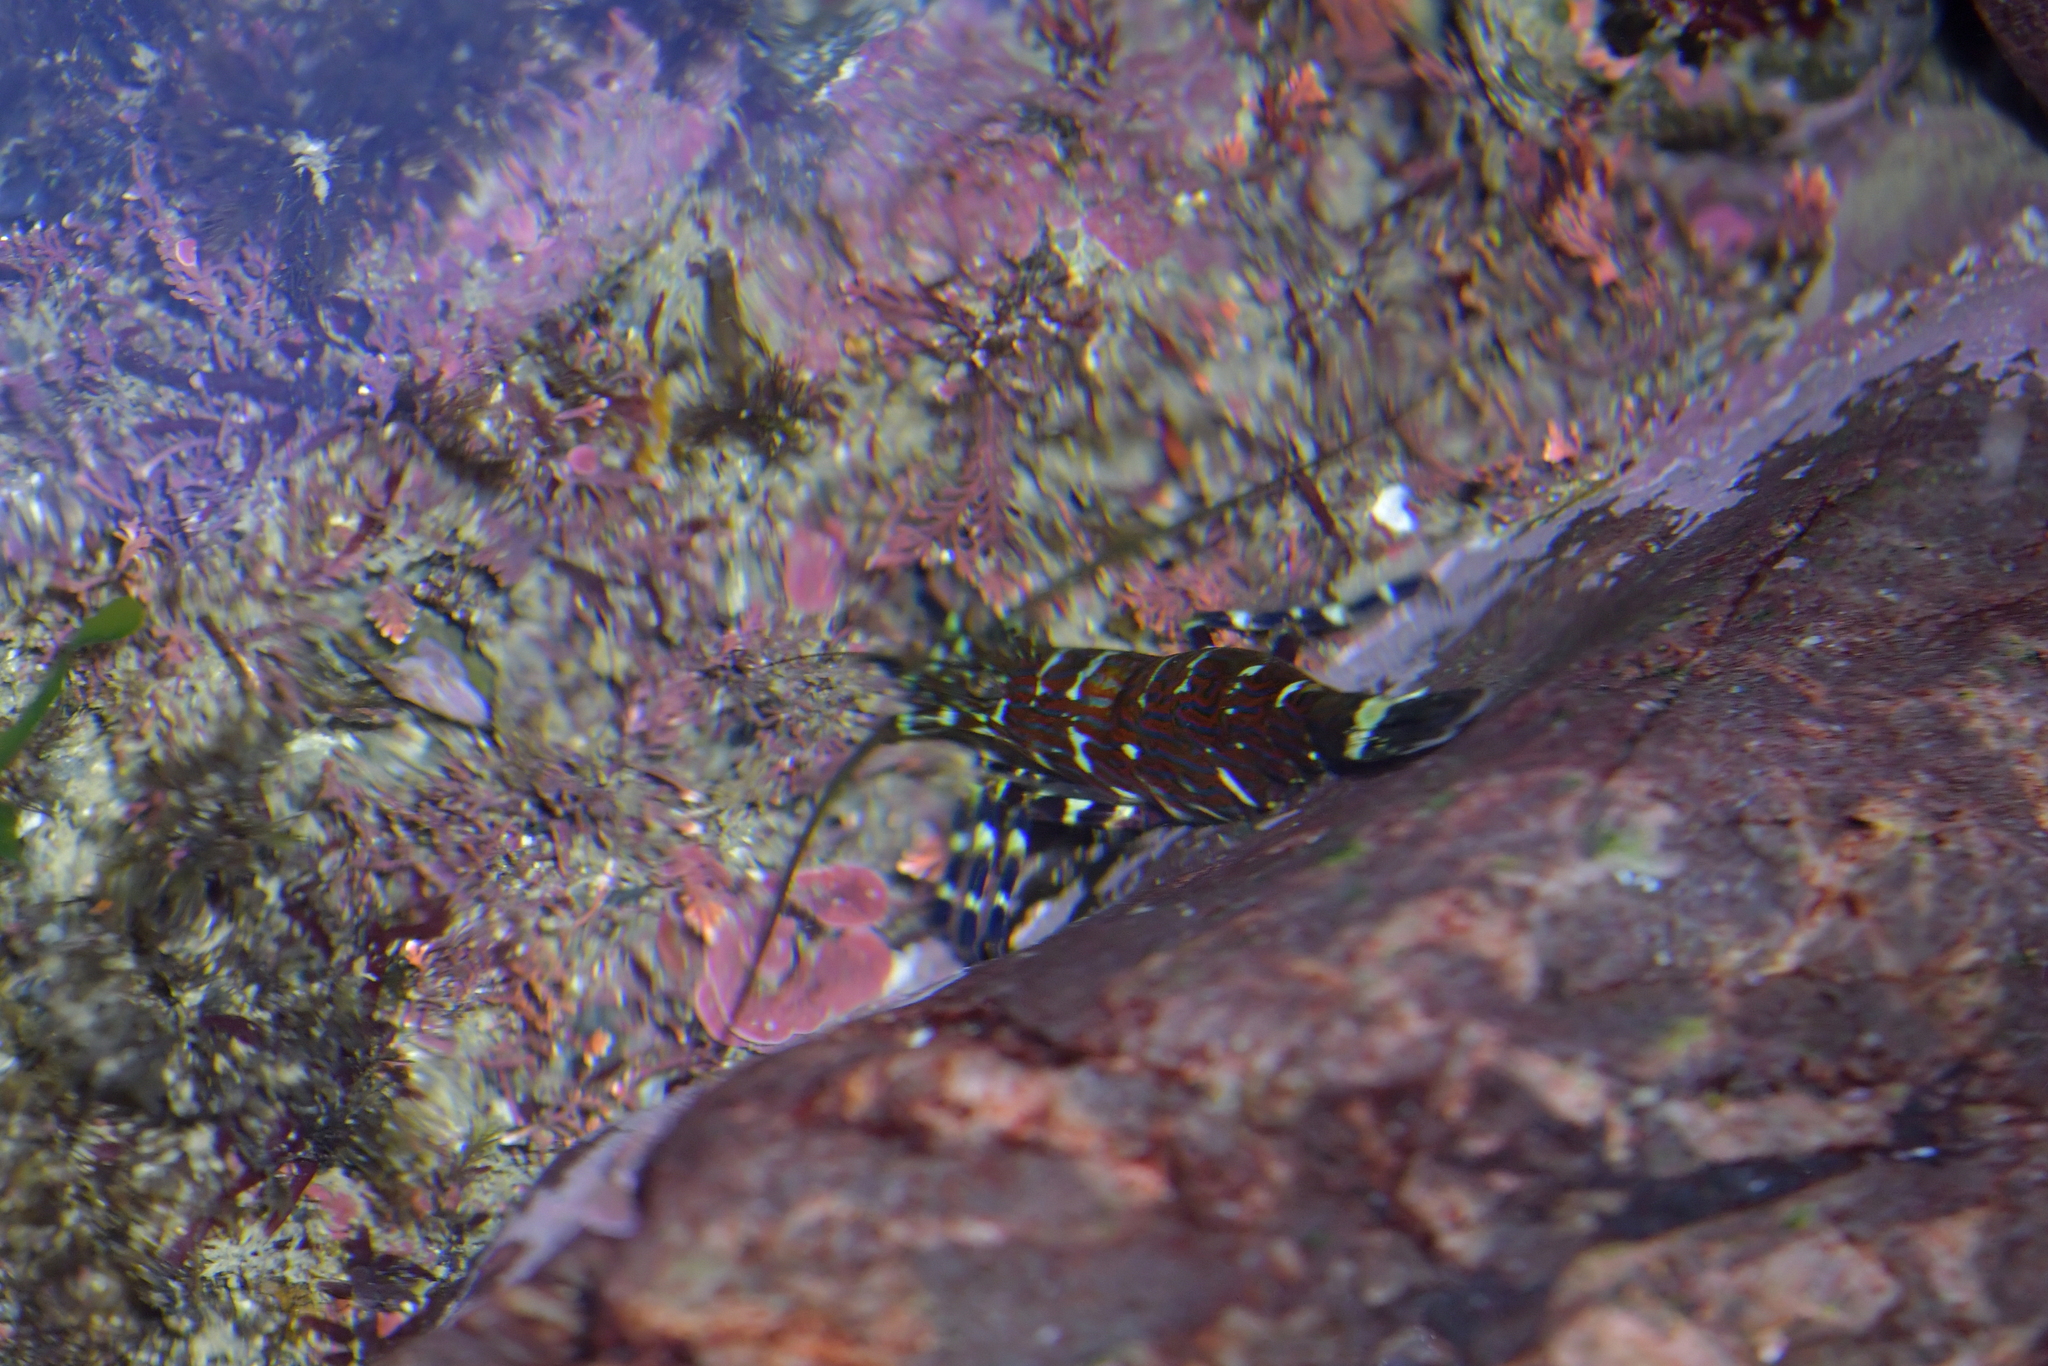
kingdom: Animalia
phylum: Arthropoda
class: Malacostraca
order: Decapoda
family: Hippolytidae
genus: Alope
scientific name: Alope spinifrons
